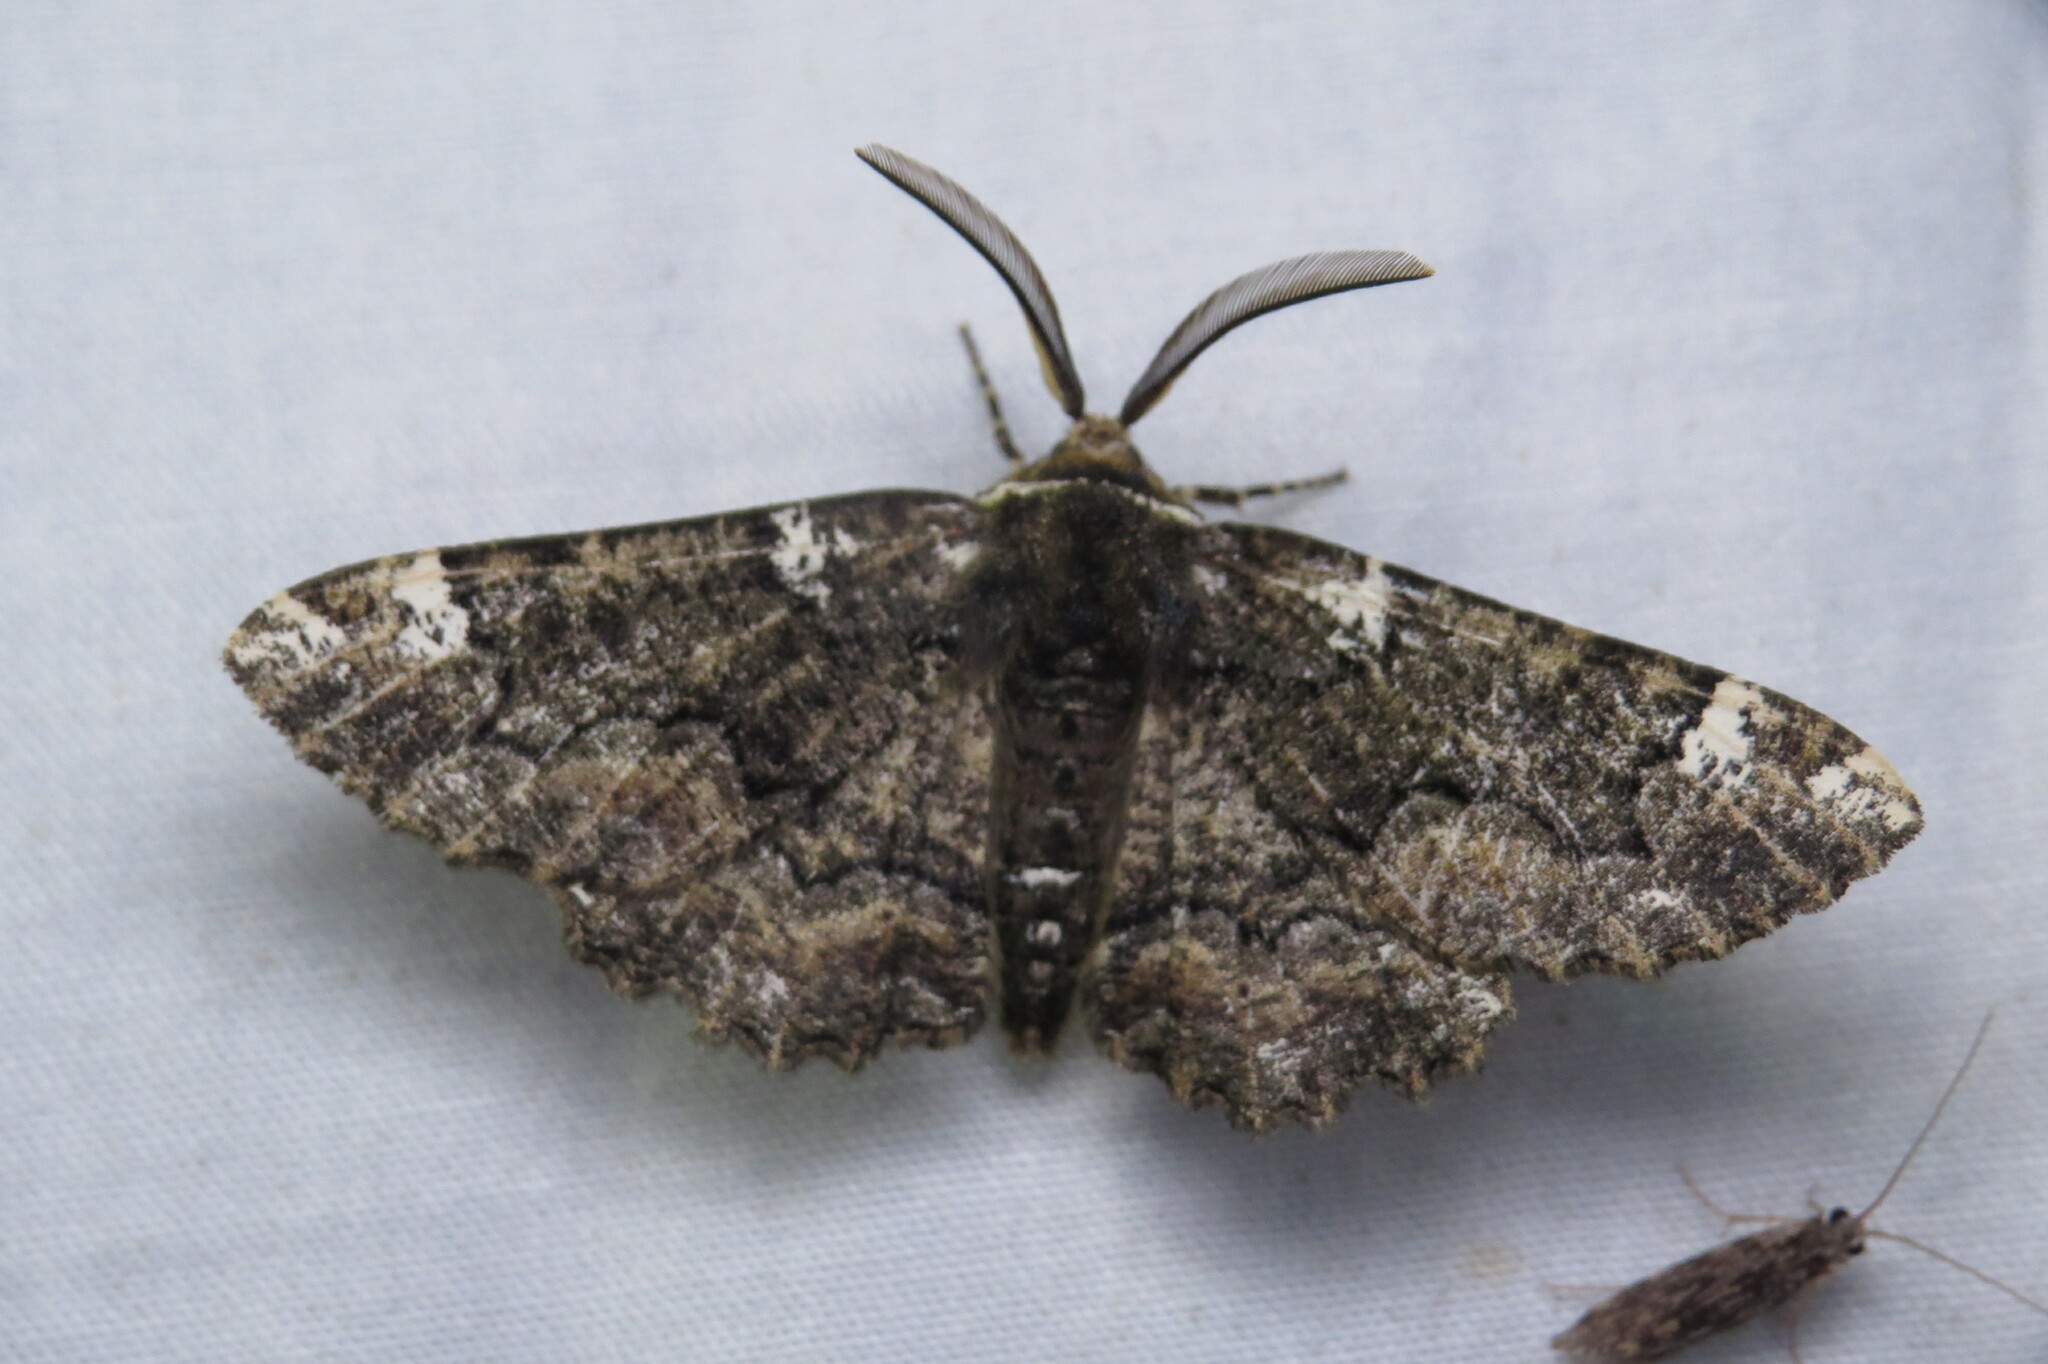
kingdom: Animalia
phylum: Arthropoda
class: Insecta
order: Lepidoptera
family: Geometridae
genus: Phaeoura
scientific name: Phaeoura quernaria
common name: Oak beauty
